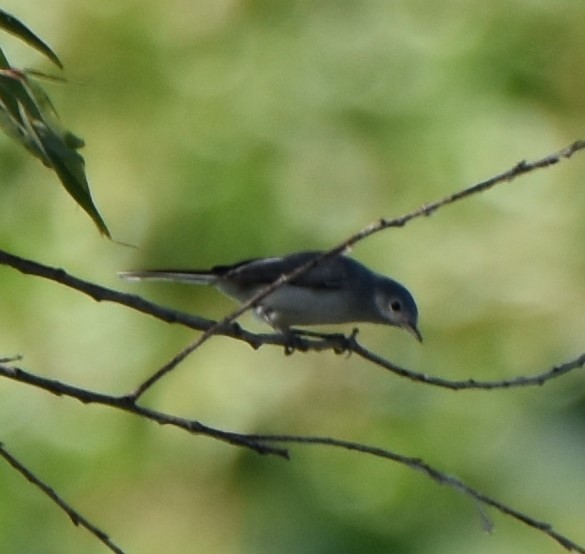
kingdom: Animalia
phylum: Chordata
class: Aves
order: Passeriformes
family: Polioptilidae
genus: Polioptila
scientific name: Polioptila caerulea
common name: Blue-gray gnatcatcher
